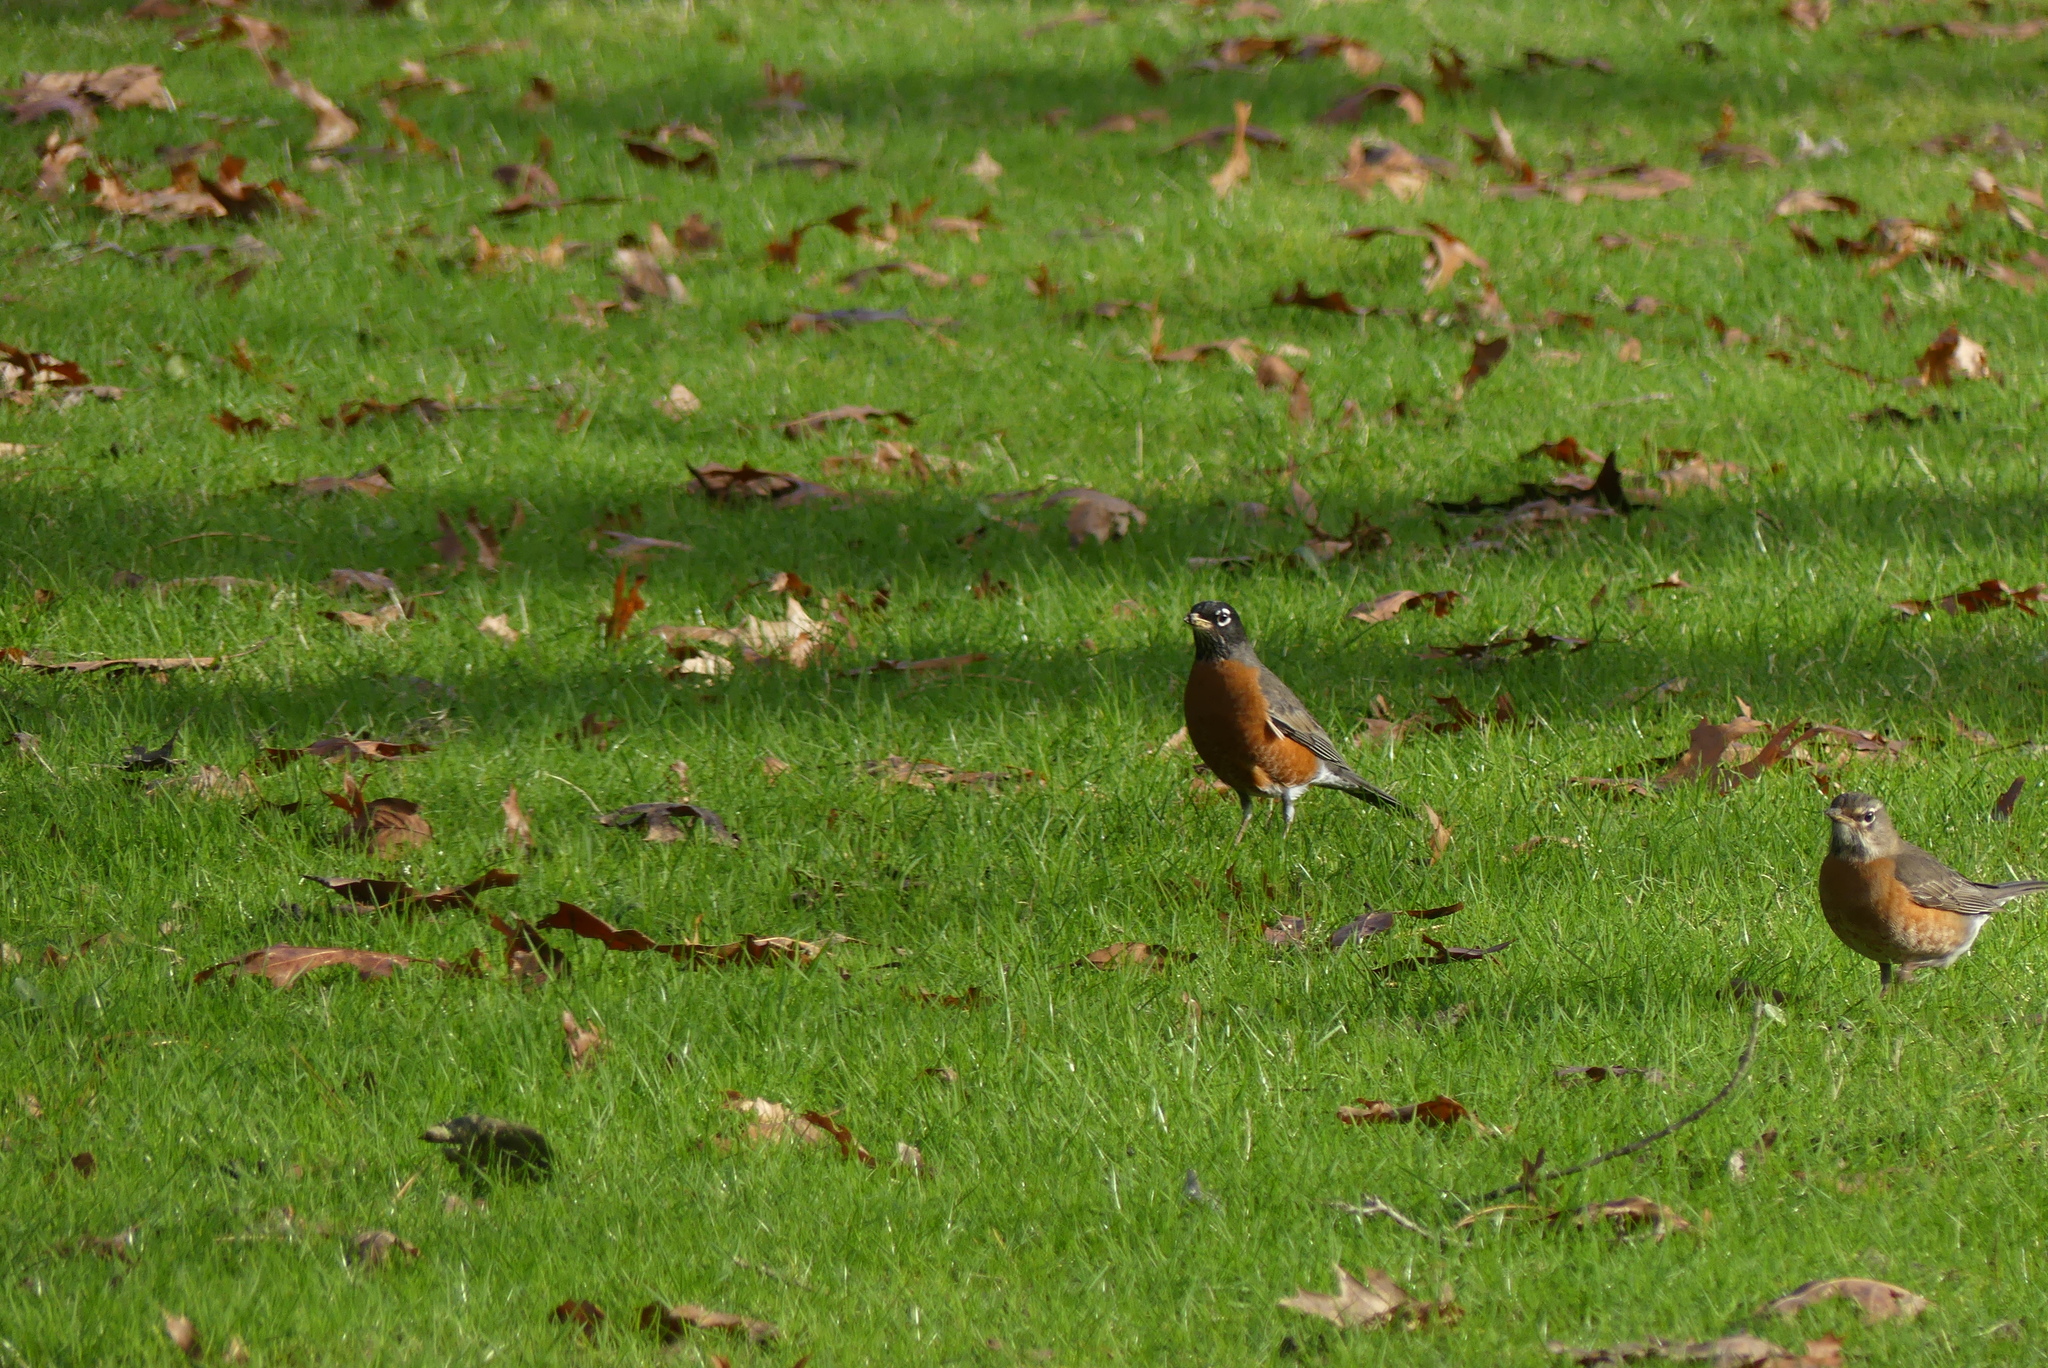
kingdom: Animalia
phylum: Chordata
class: Aves
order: Passeriformes
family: Turdidae
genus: Turdus
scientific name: Turdus migratorius
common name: American robin
